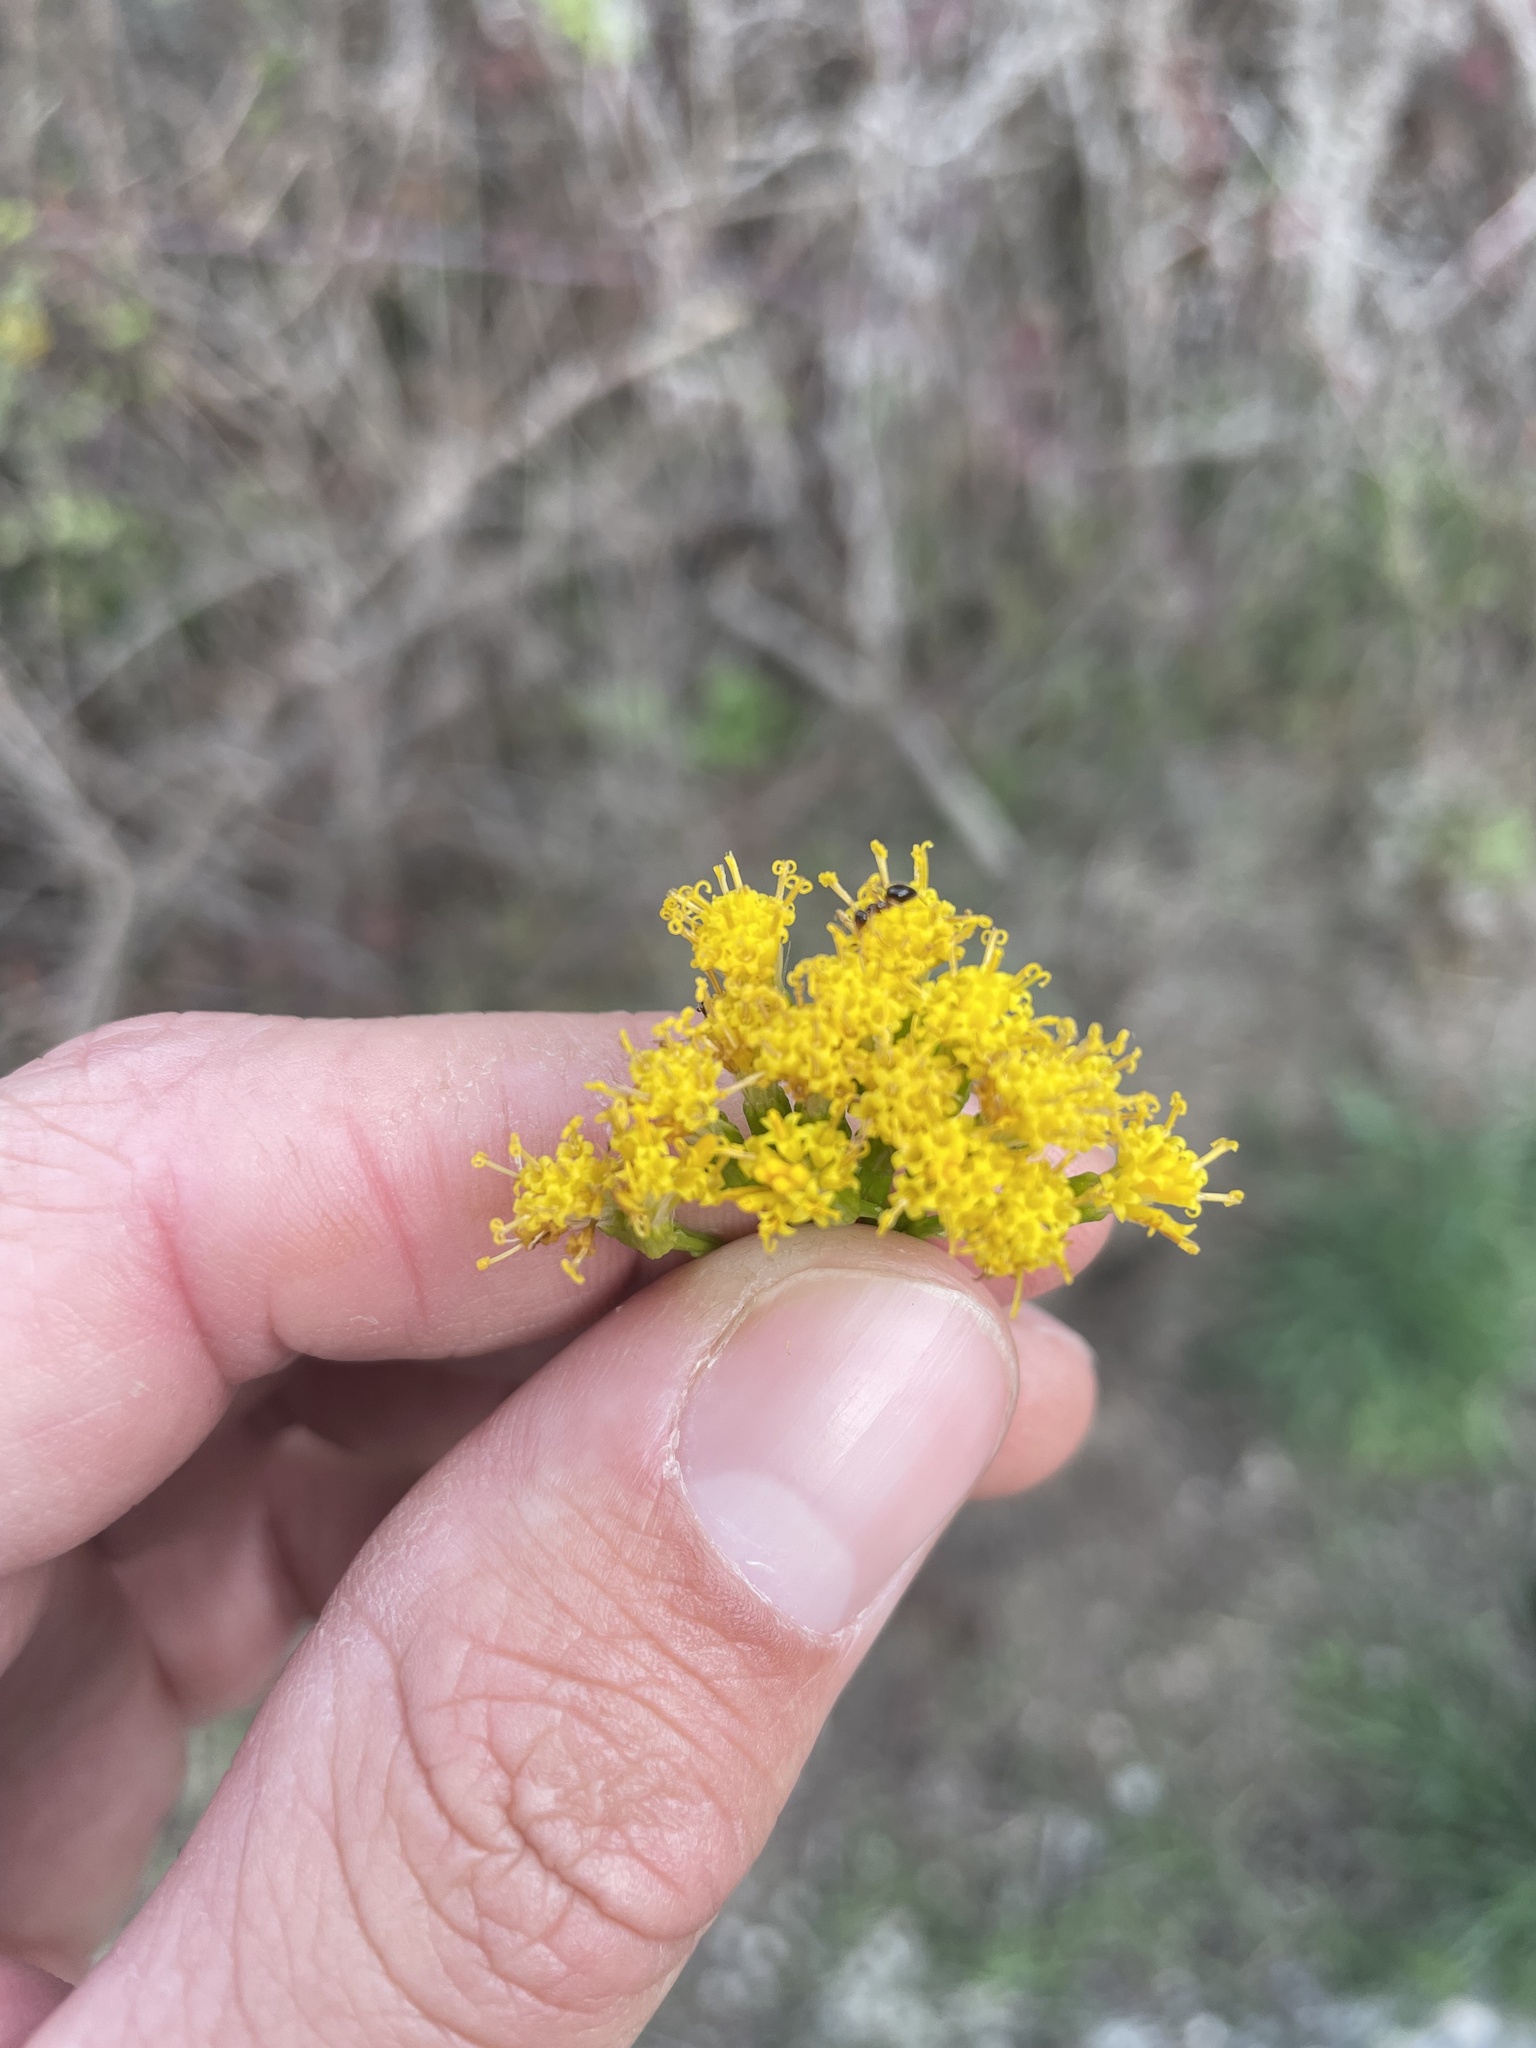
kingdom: Plantae
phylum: Tracheophyta
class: Magnoliopsida
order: Asterales
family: Asteraceae
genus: Delairea
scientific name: Delairea odorata
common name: Cape-ivy
